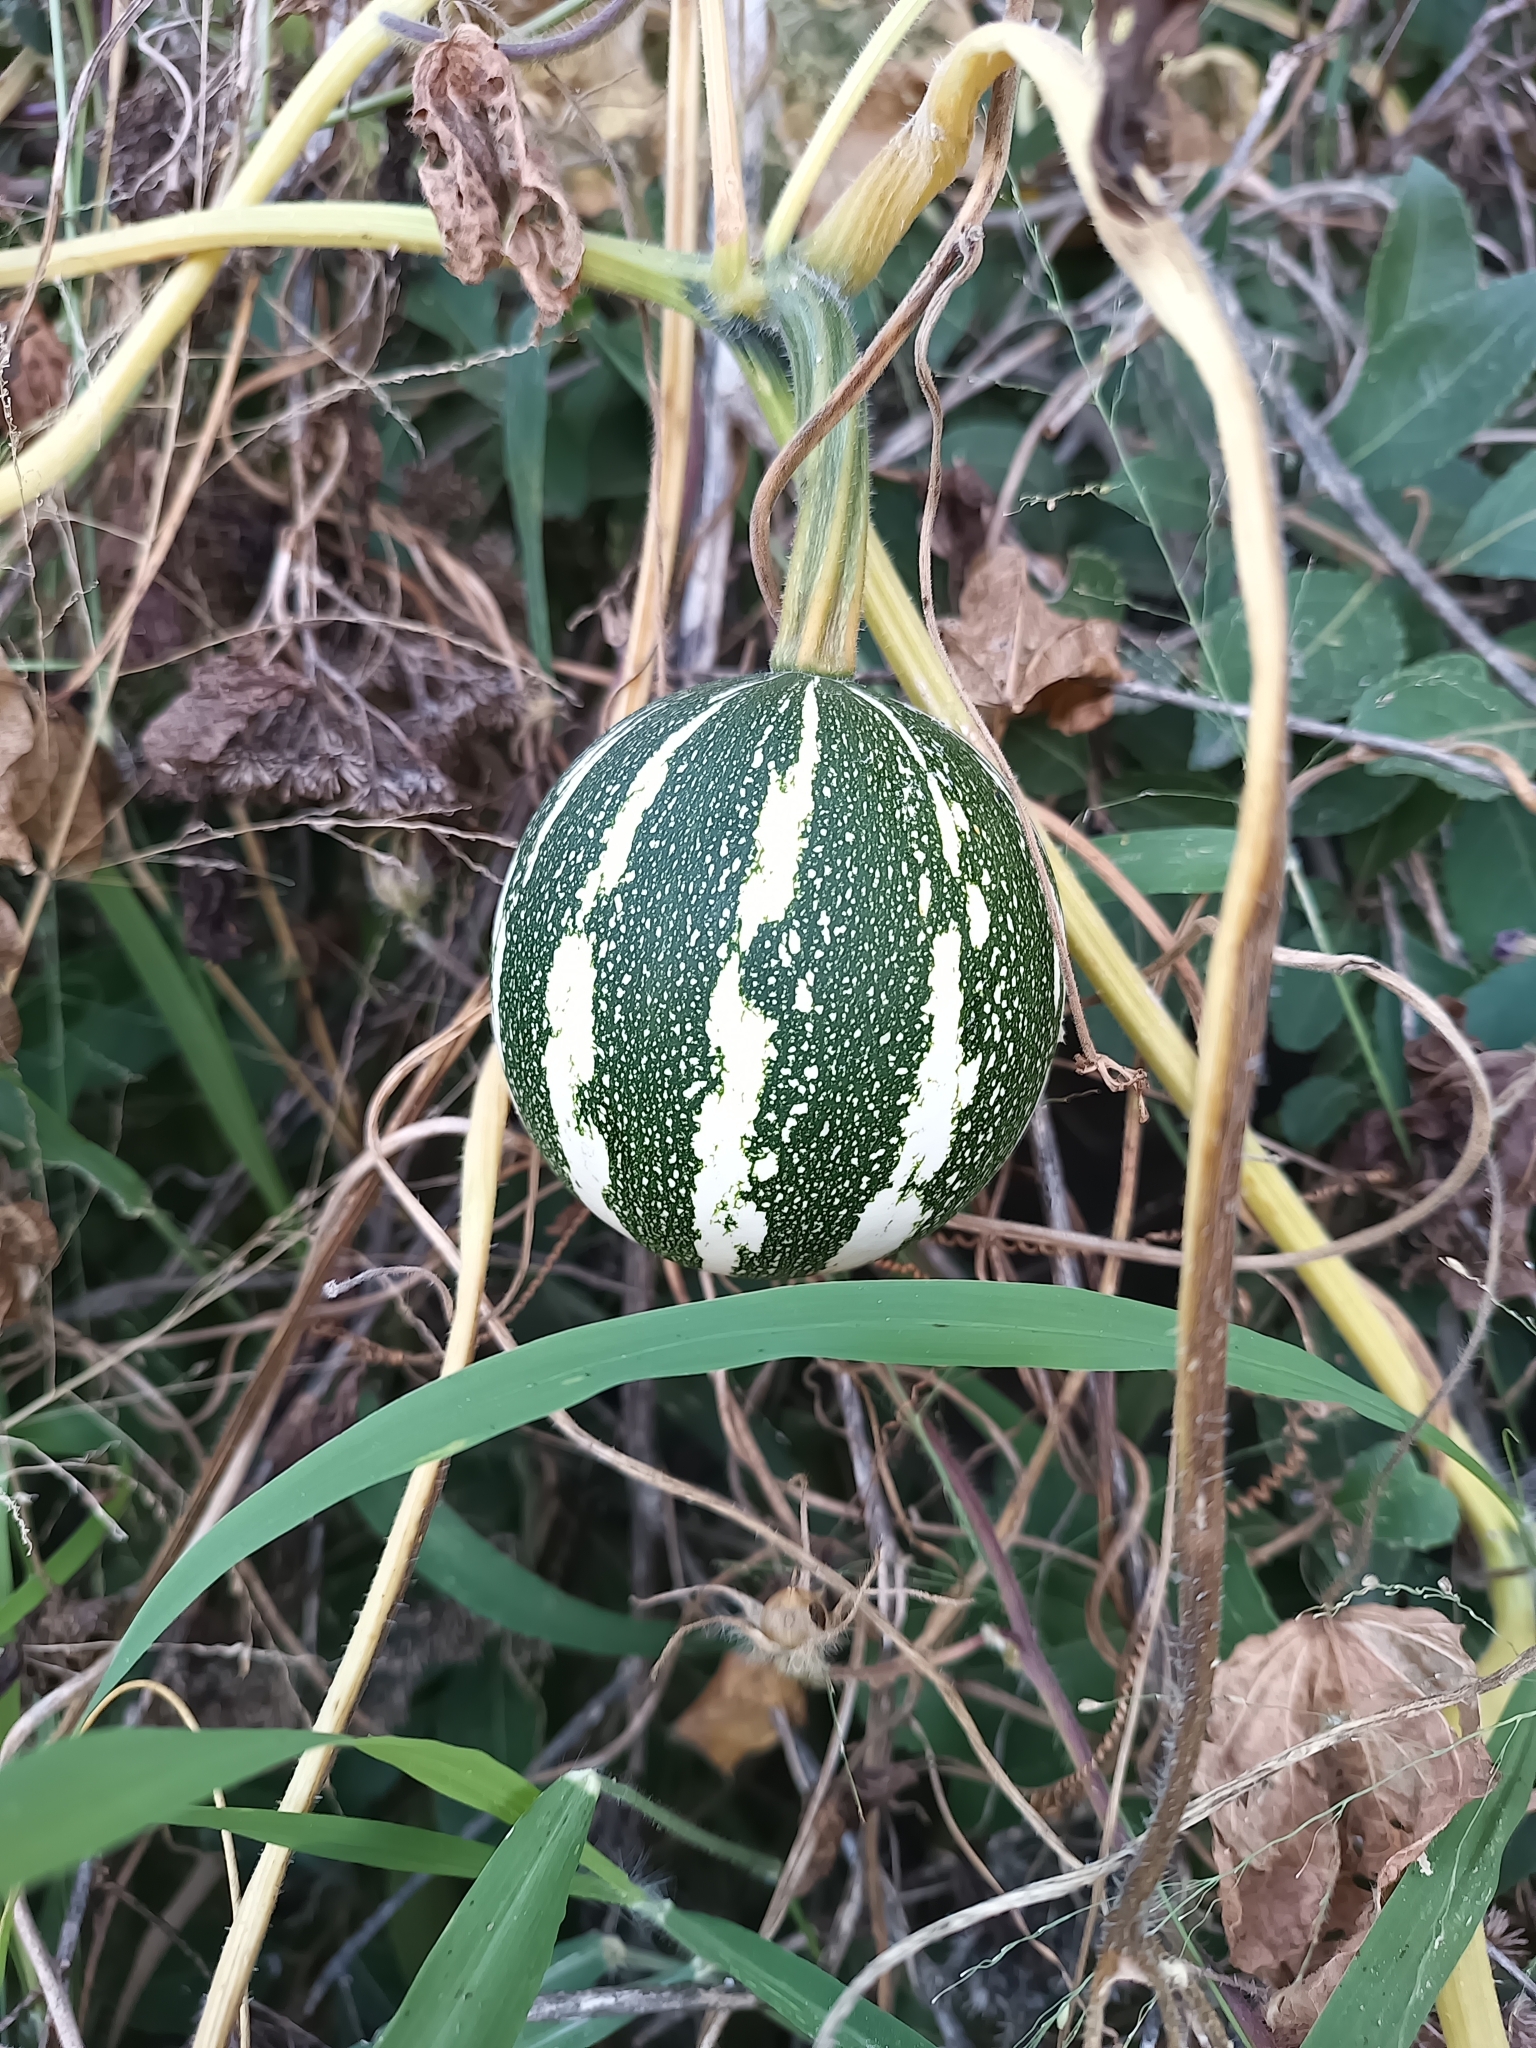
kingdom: Plantae
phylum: Tracheophyta
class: Magnoliopsida
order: Cucurbitales
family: Cucurbitaceae
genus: Cucurbita
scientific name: Cucurbita argyrosperma
